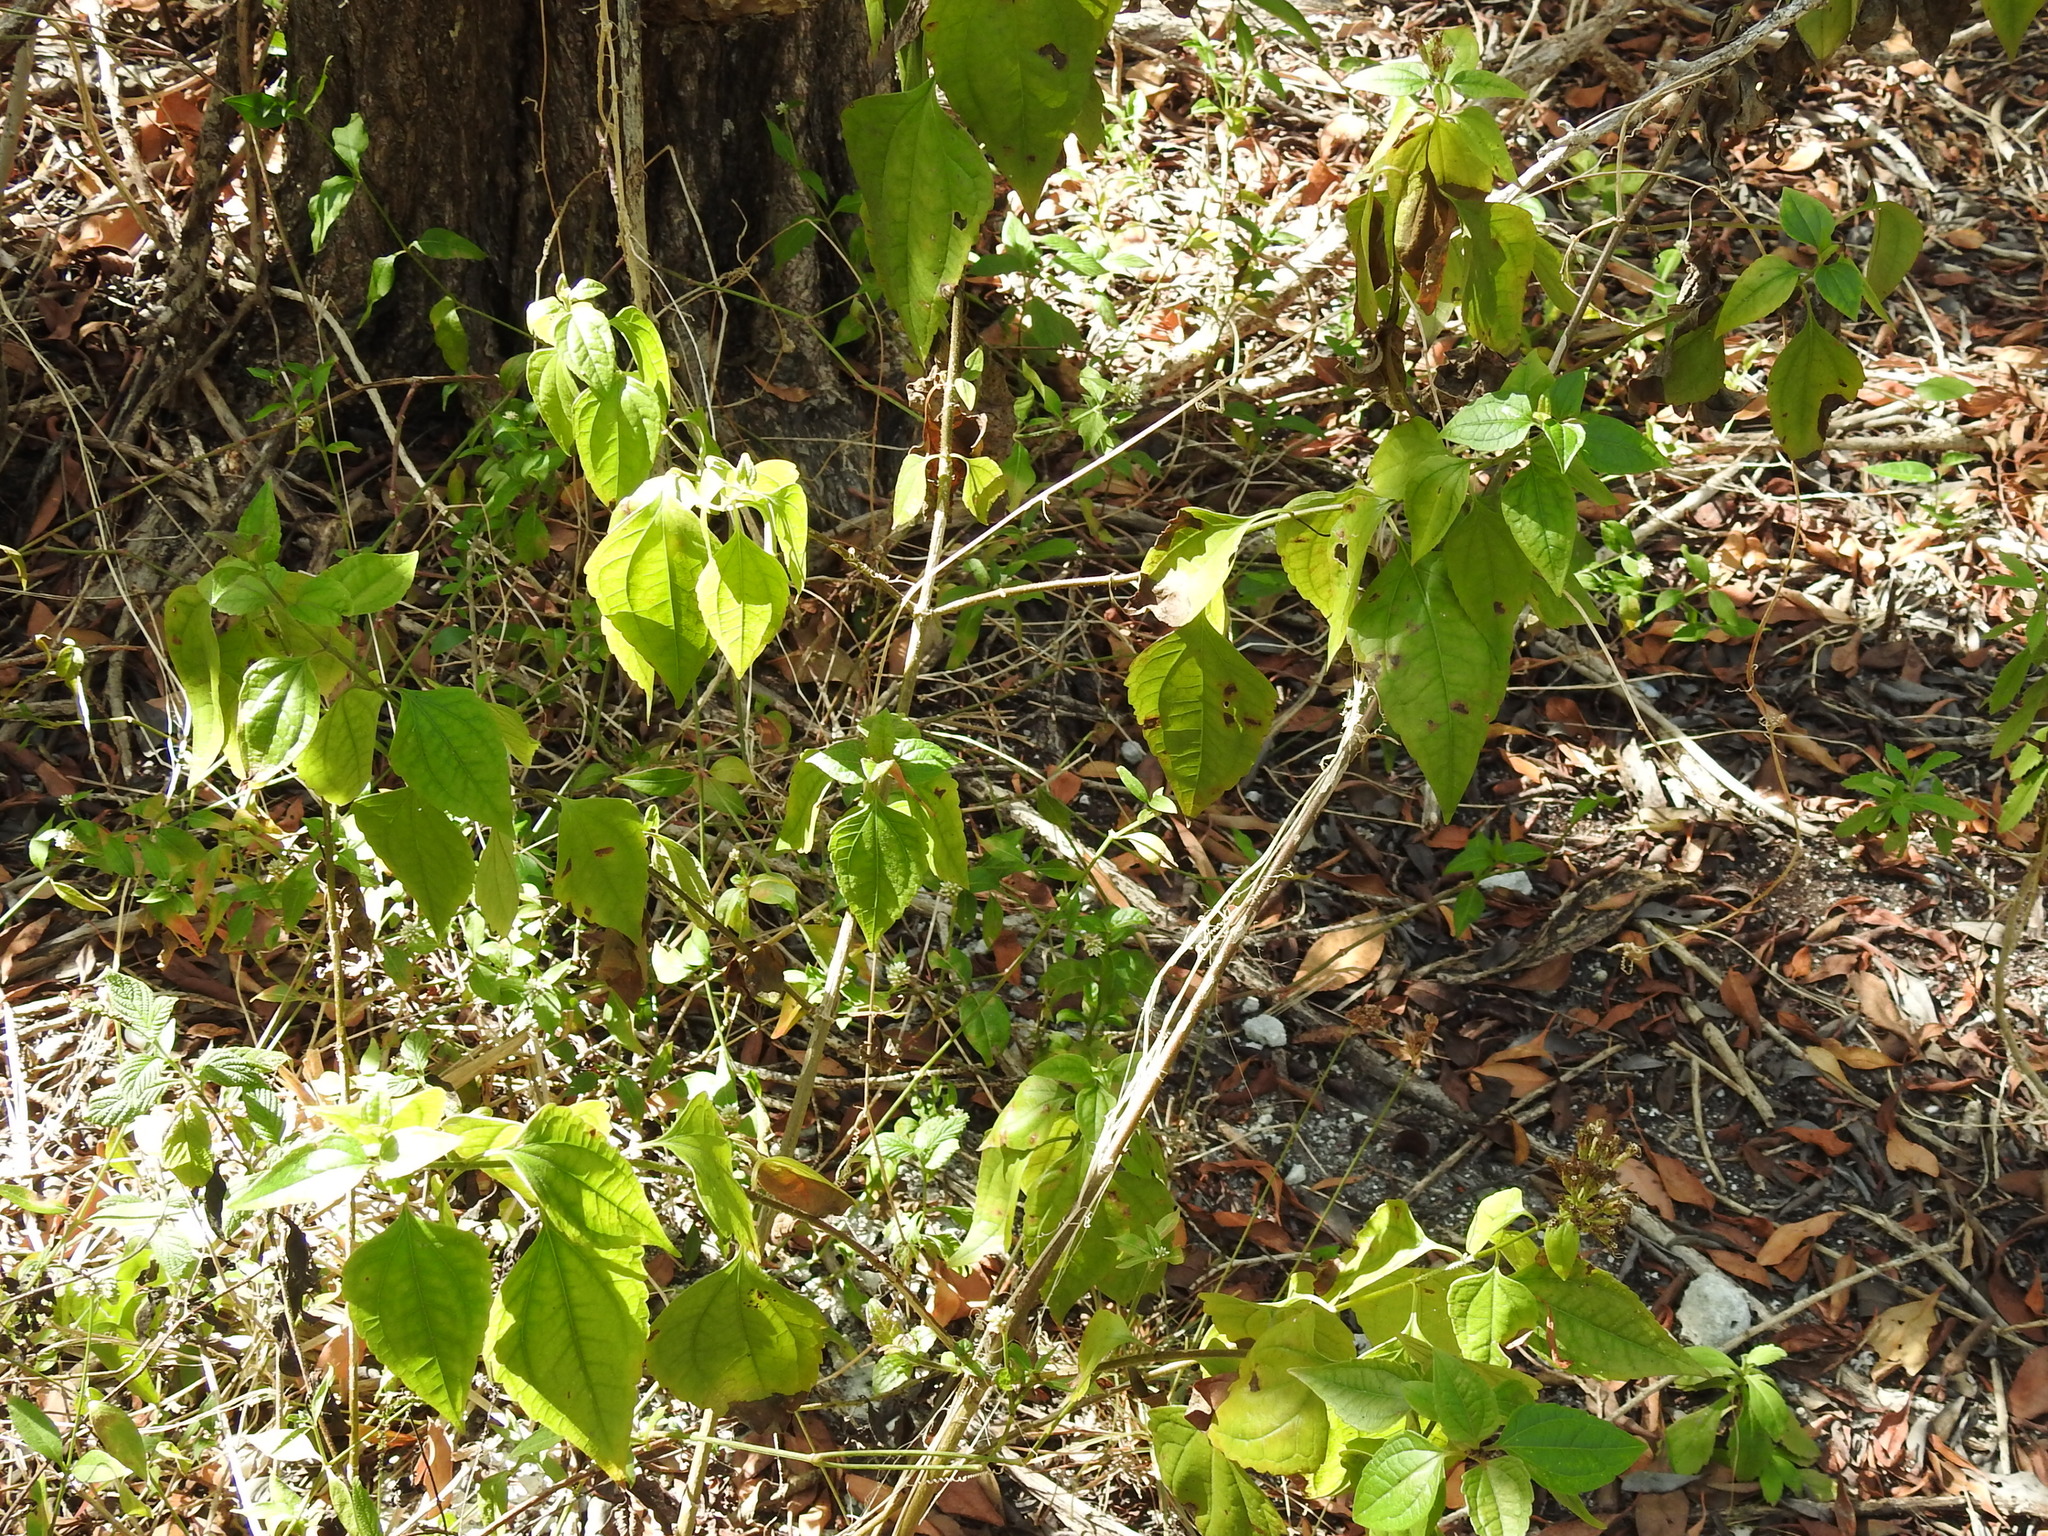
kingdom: Plantae
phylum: Tracheophyta
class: Magnoliopsida
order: Asterales
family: Asteraceae
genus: Chromolaena
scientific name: Chromolaena odorata
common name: Siamweed
